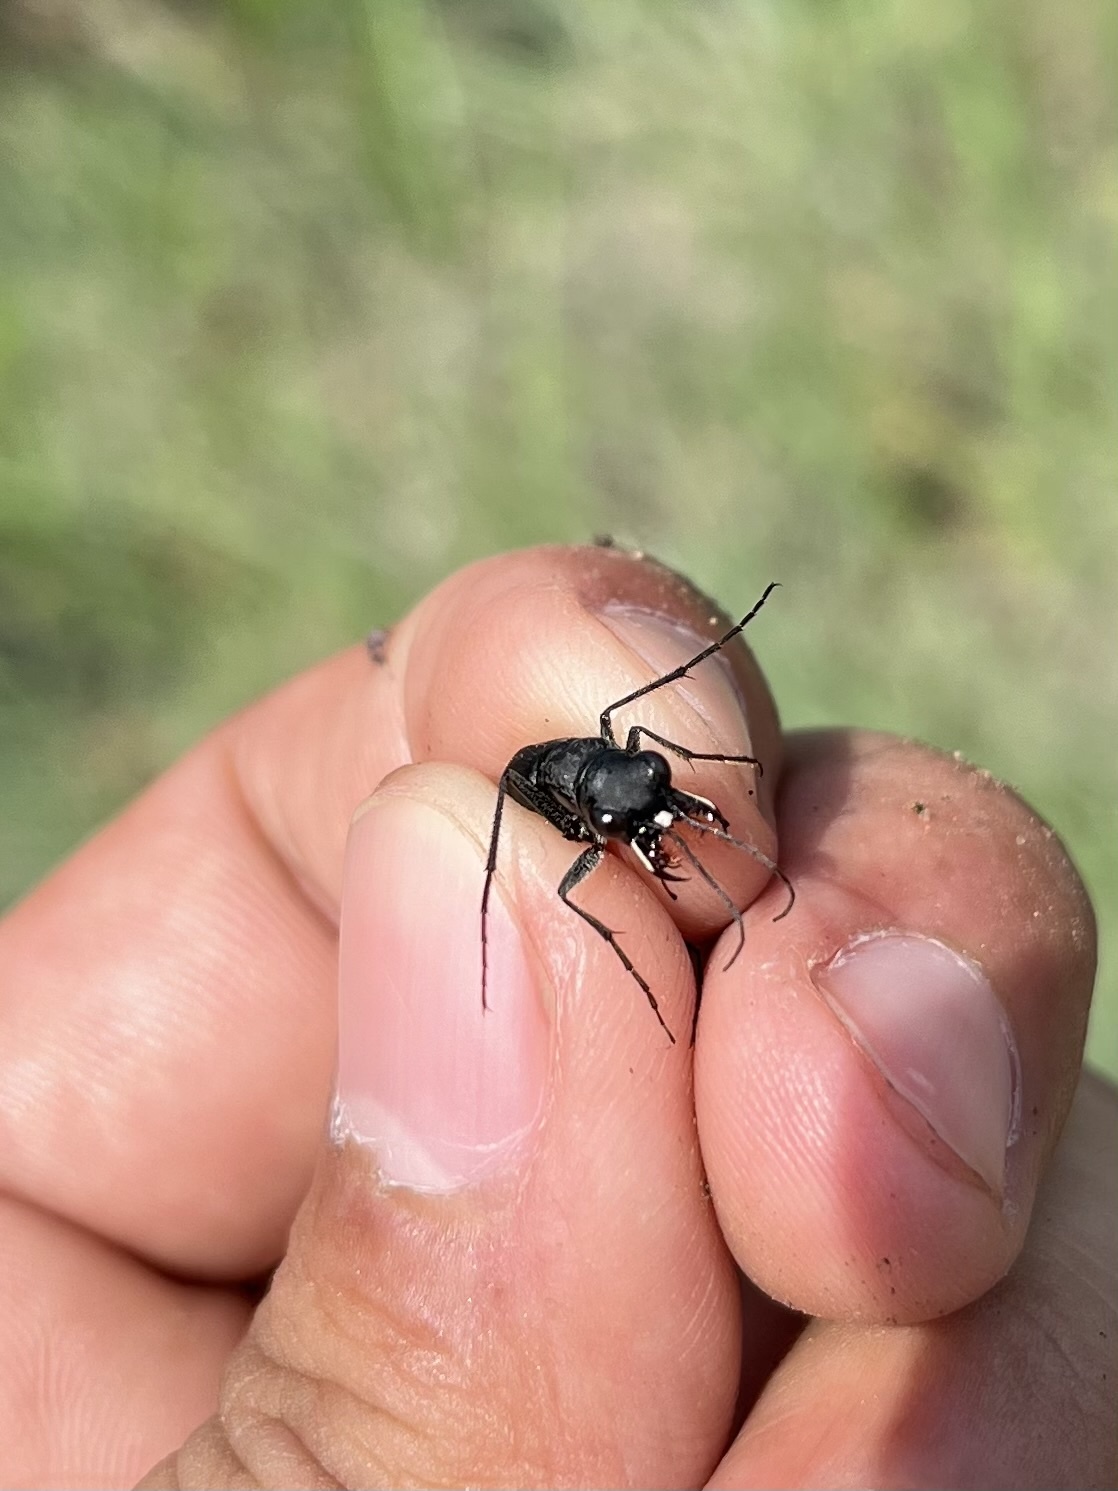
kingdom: Animalia
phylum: Arthropoda
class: Insecta
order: Coleoptera
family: Carabidae
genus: Dromochorus
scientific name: Dromochorus belfragei
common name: Loamy-ground dromo tiger beetle
